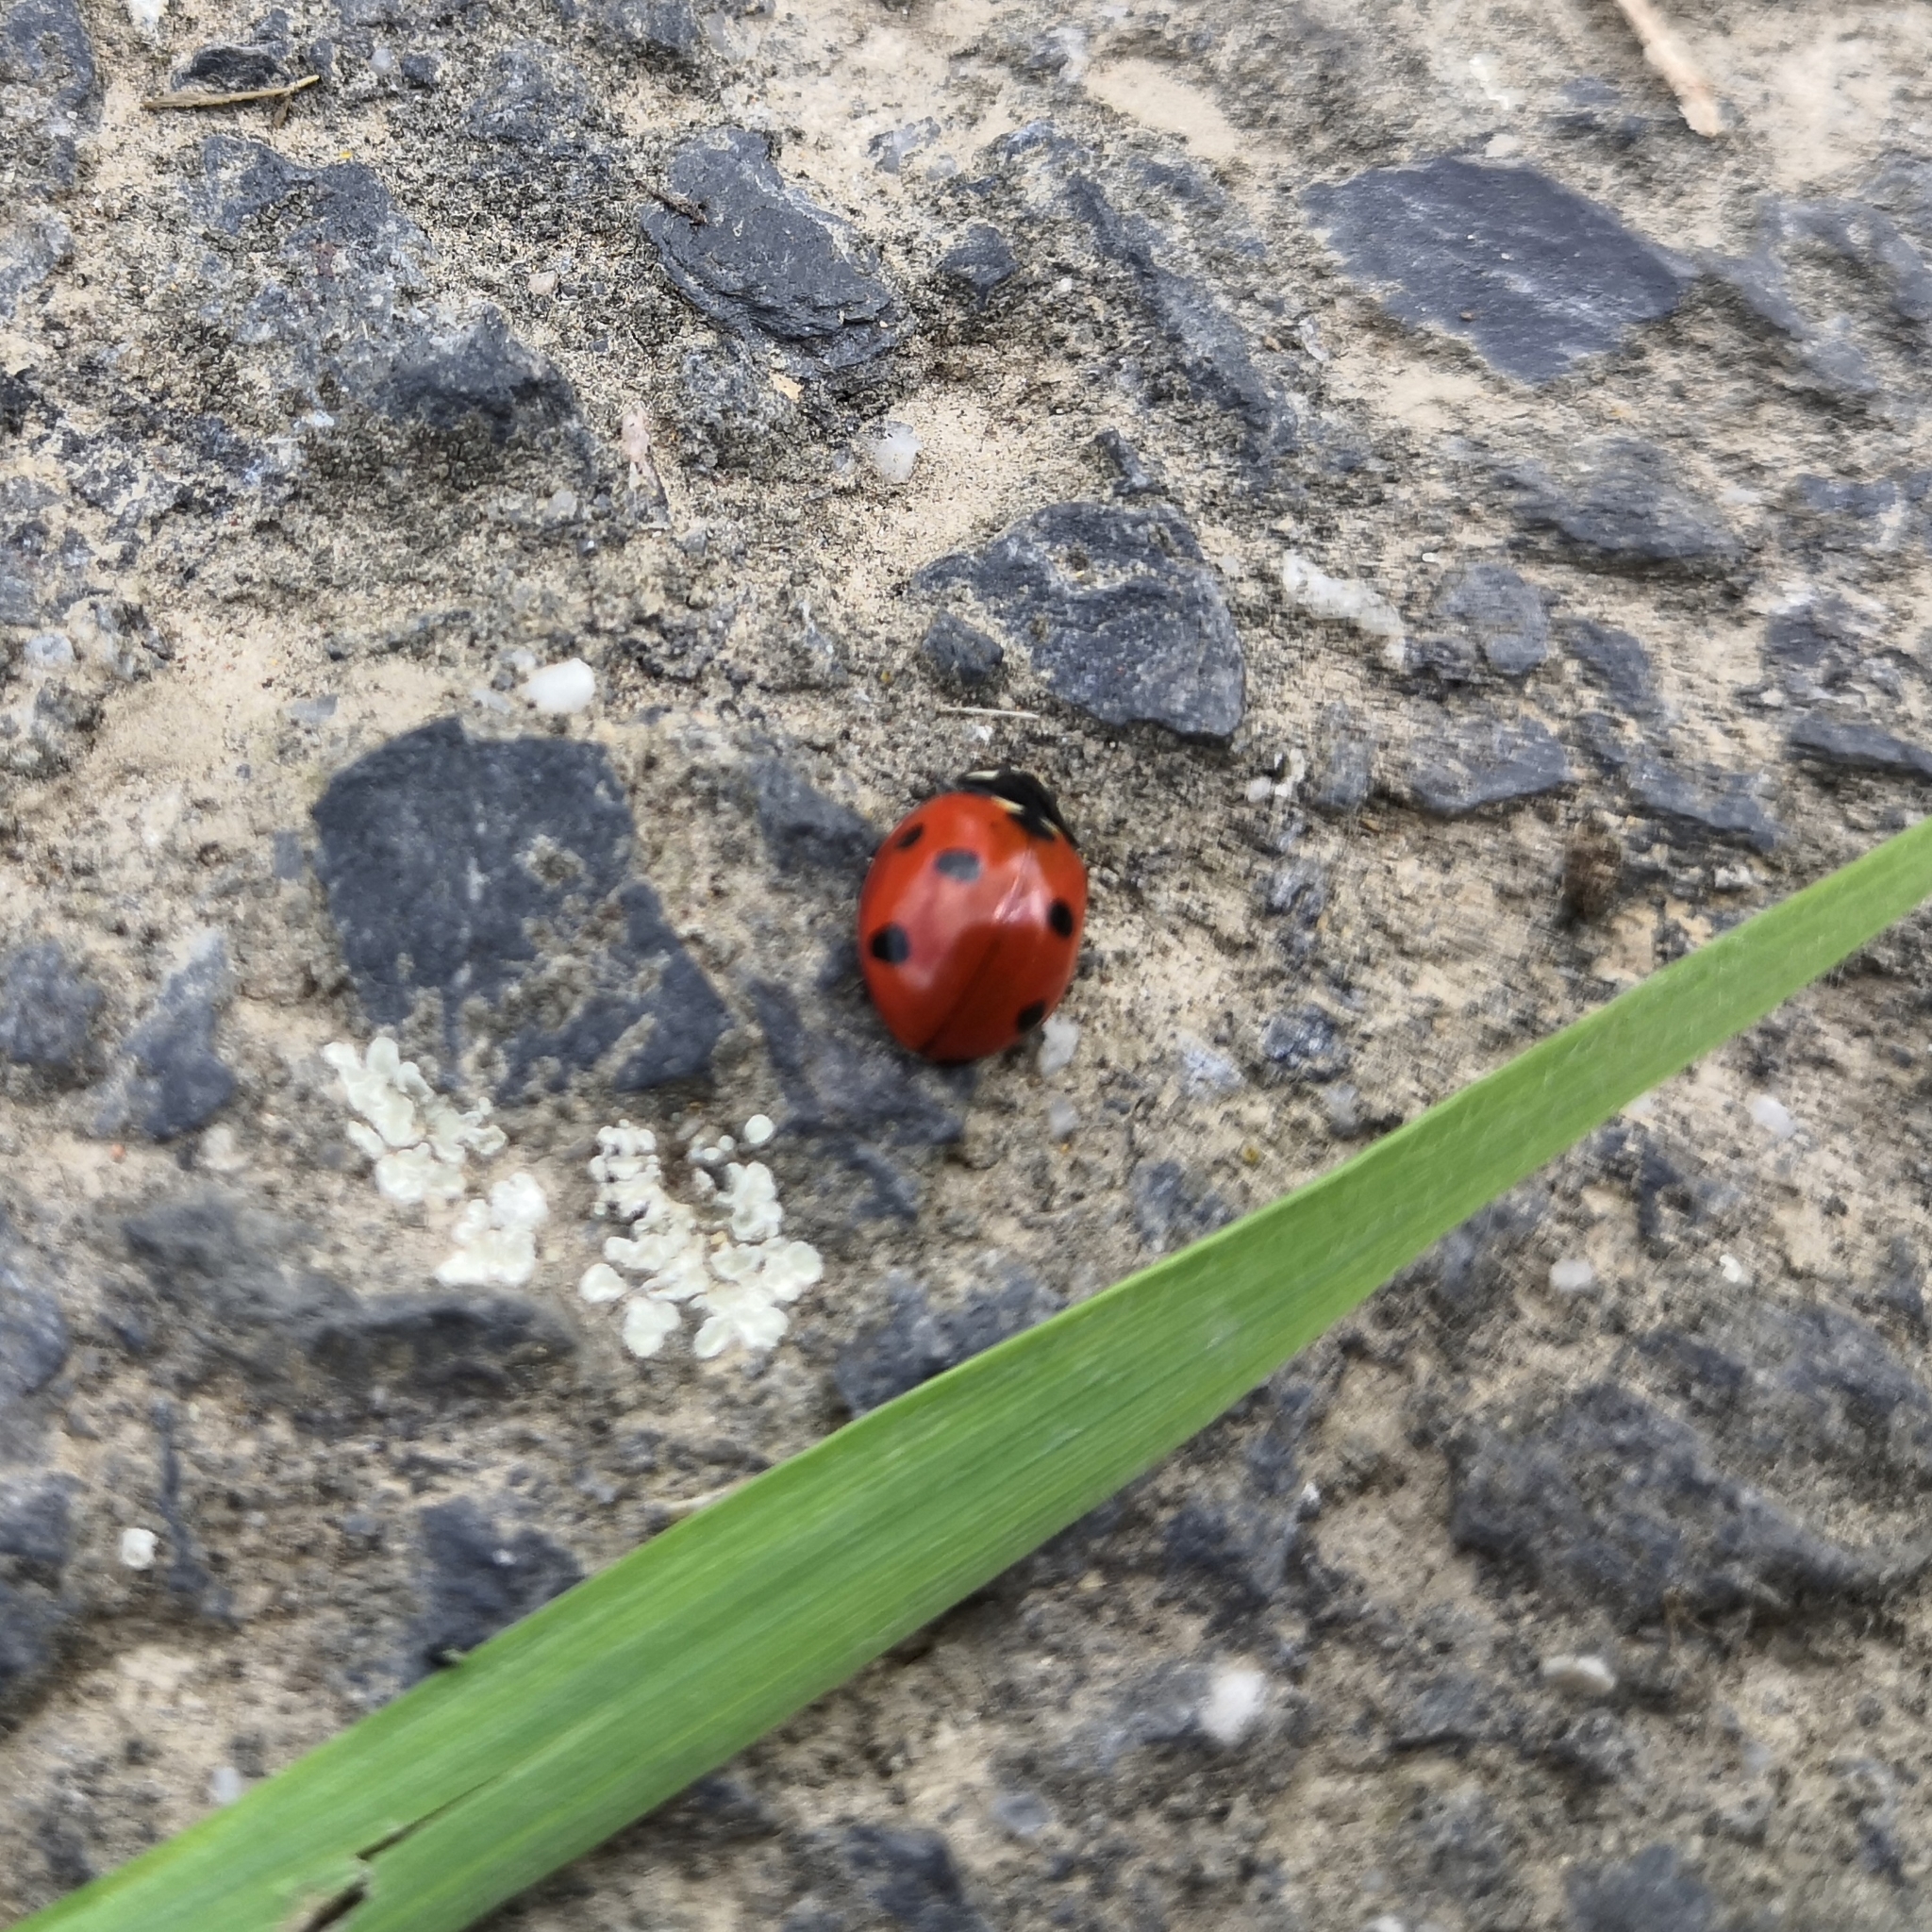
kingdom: Animalia
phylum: Arthropoda
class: Insecta
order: Coleoptera
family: Coccinellidae
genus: Coccinella
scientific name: Coccinella septempunctata
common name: Sevenspotted lady beetle
